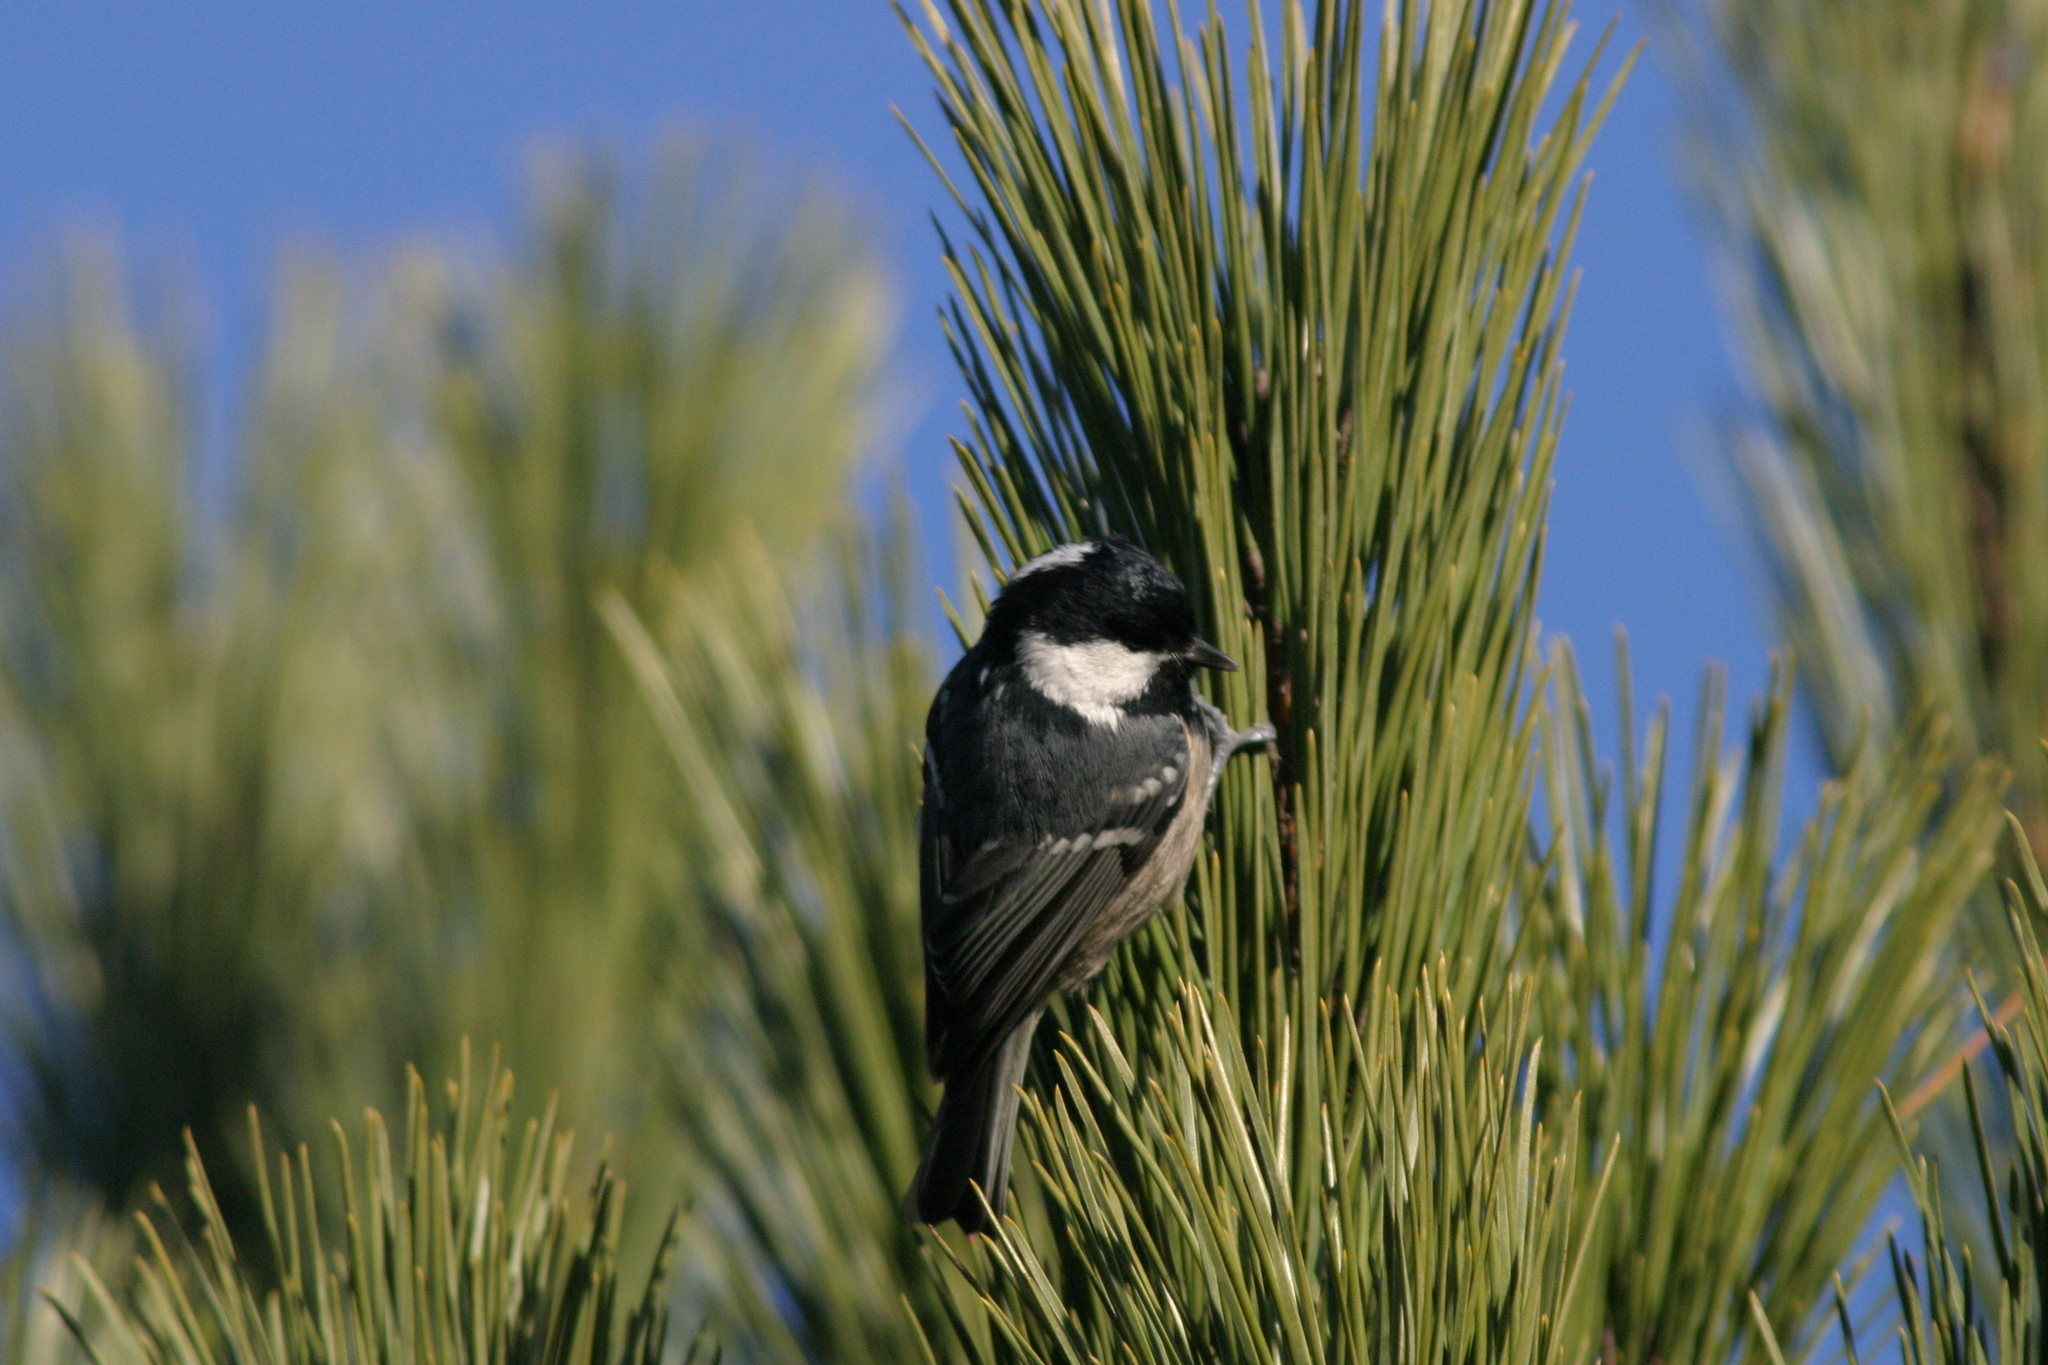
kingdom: Animalia
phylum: Chordata
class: Aves
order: Passeriformes
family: Paridae
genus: Periparus
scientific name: Periparus ater
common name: Coal tit
